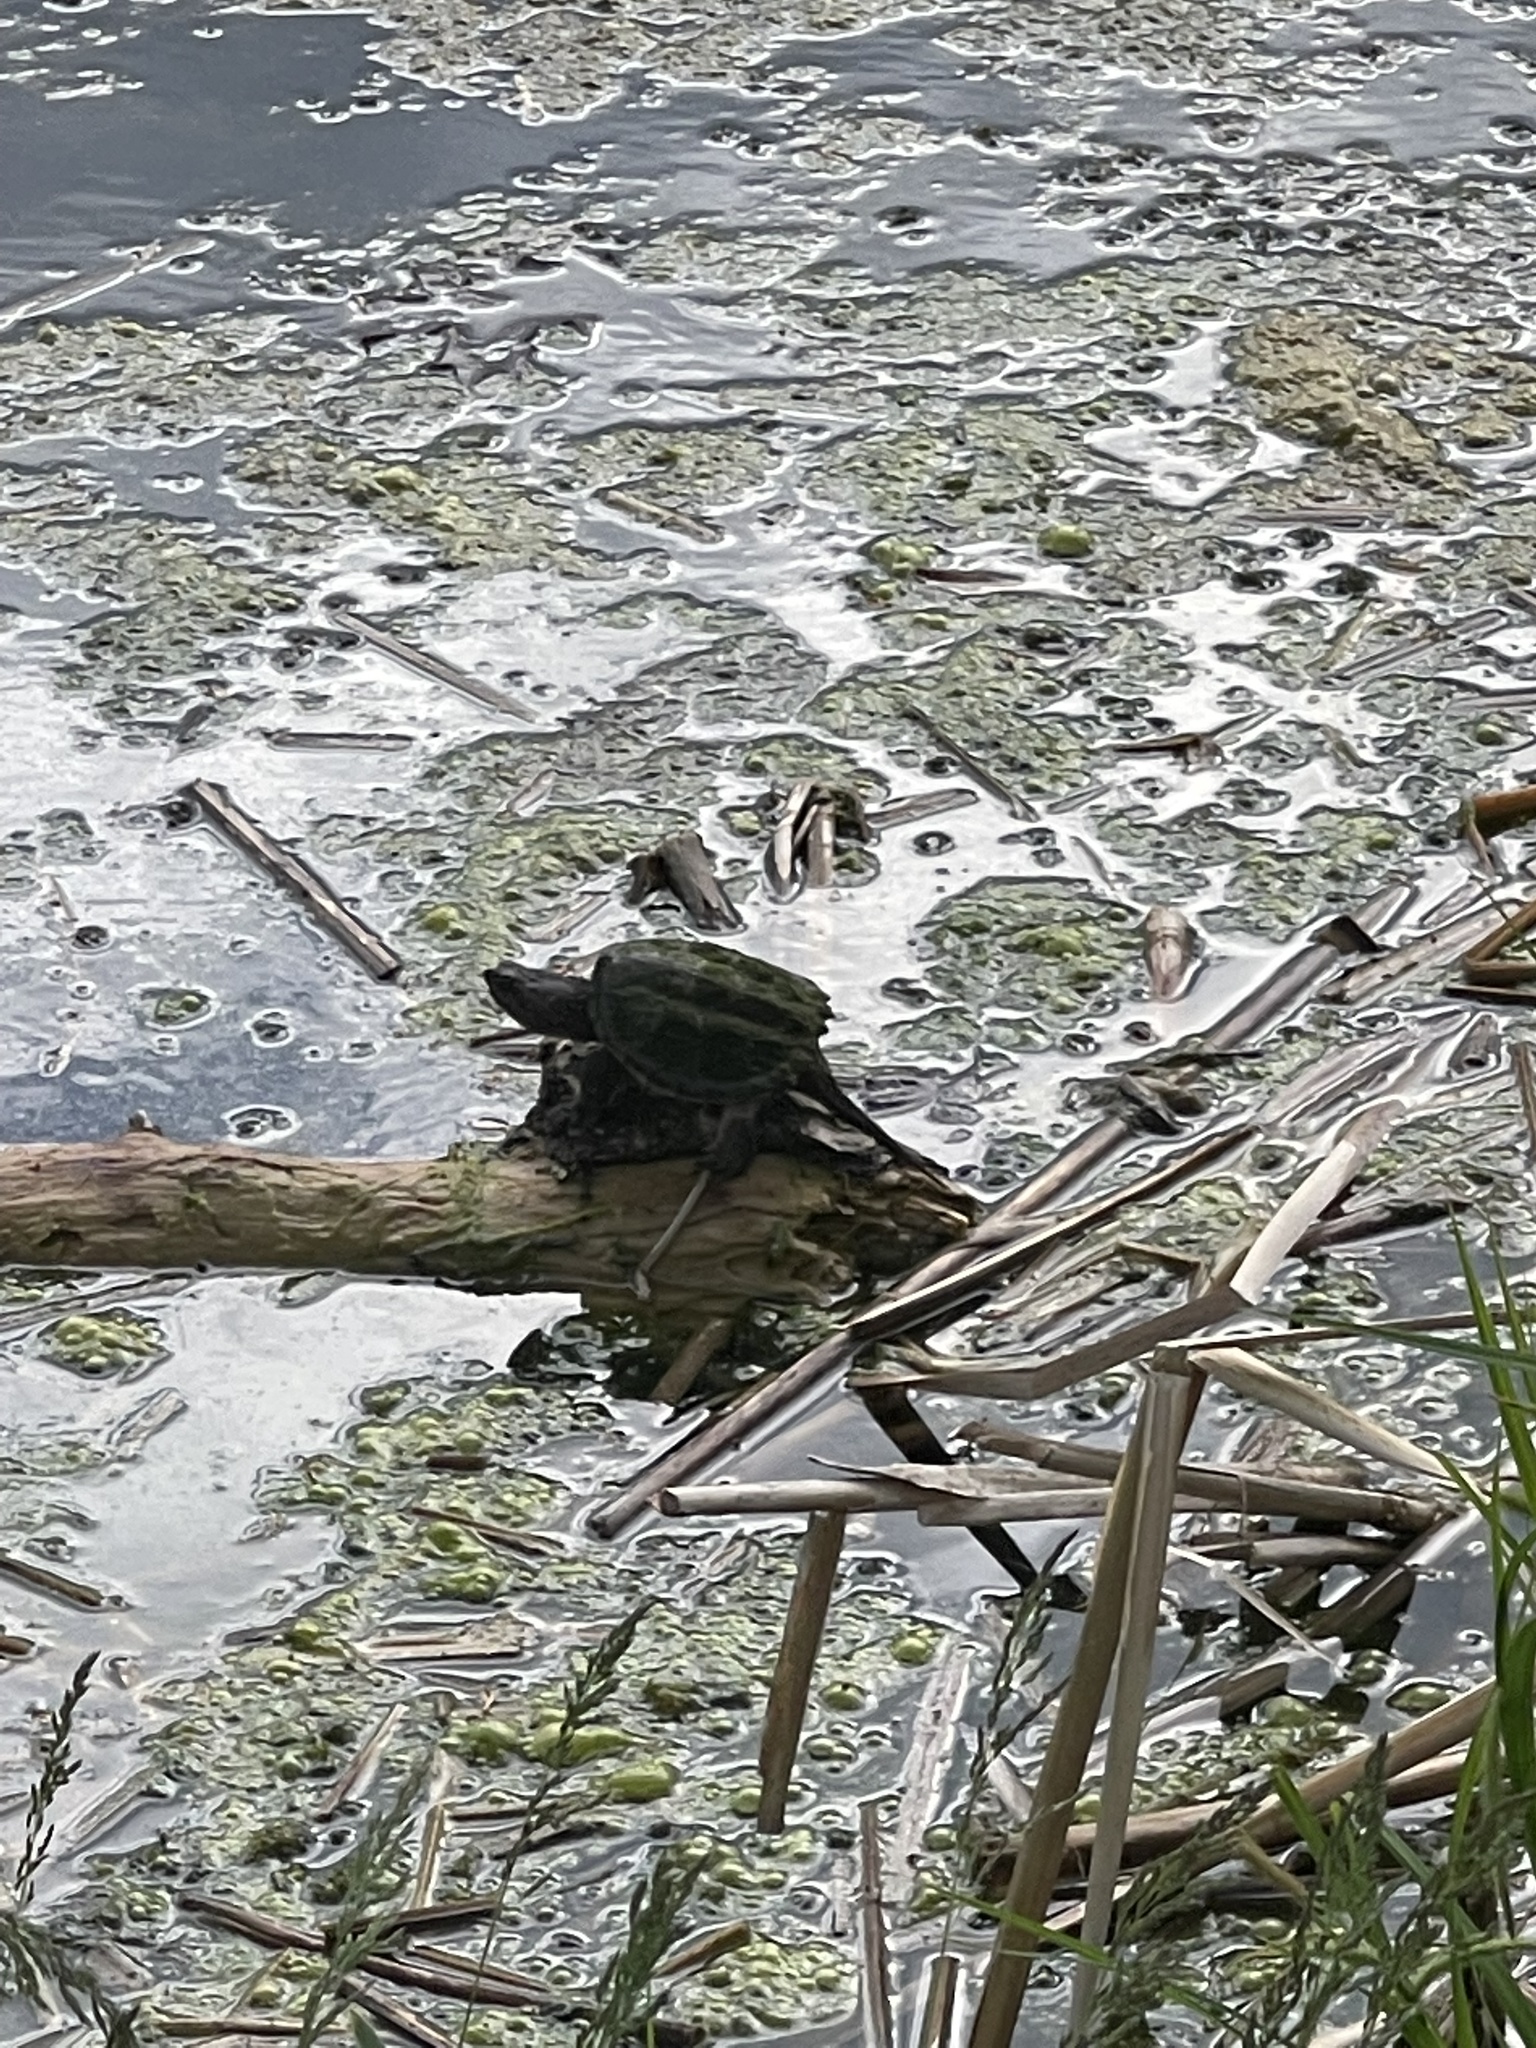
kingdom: Animalia
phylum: Chordata
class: Testudines
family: Chelydridae
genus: Chelydra
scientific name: Chelydra serpentina
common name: Common snapping turtle
